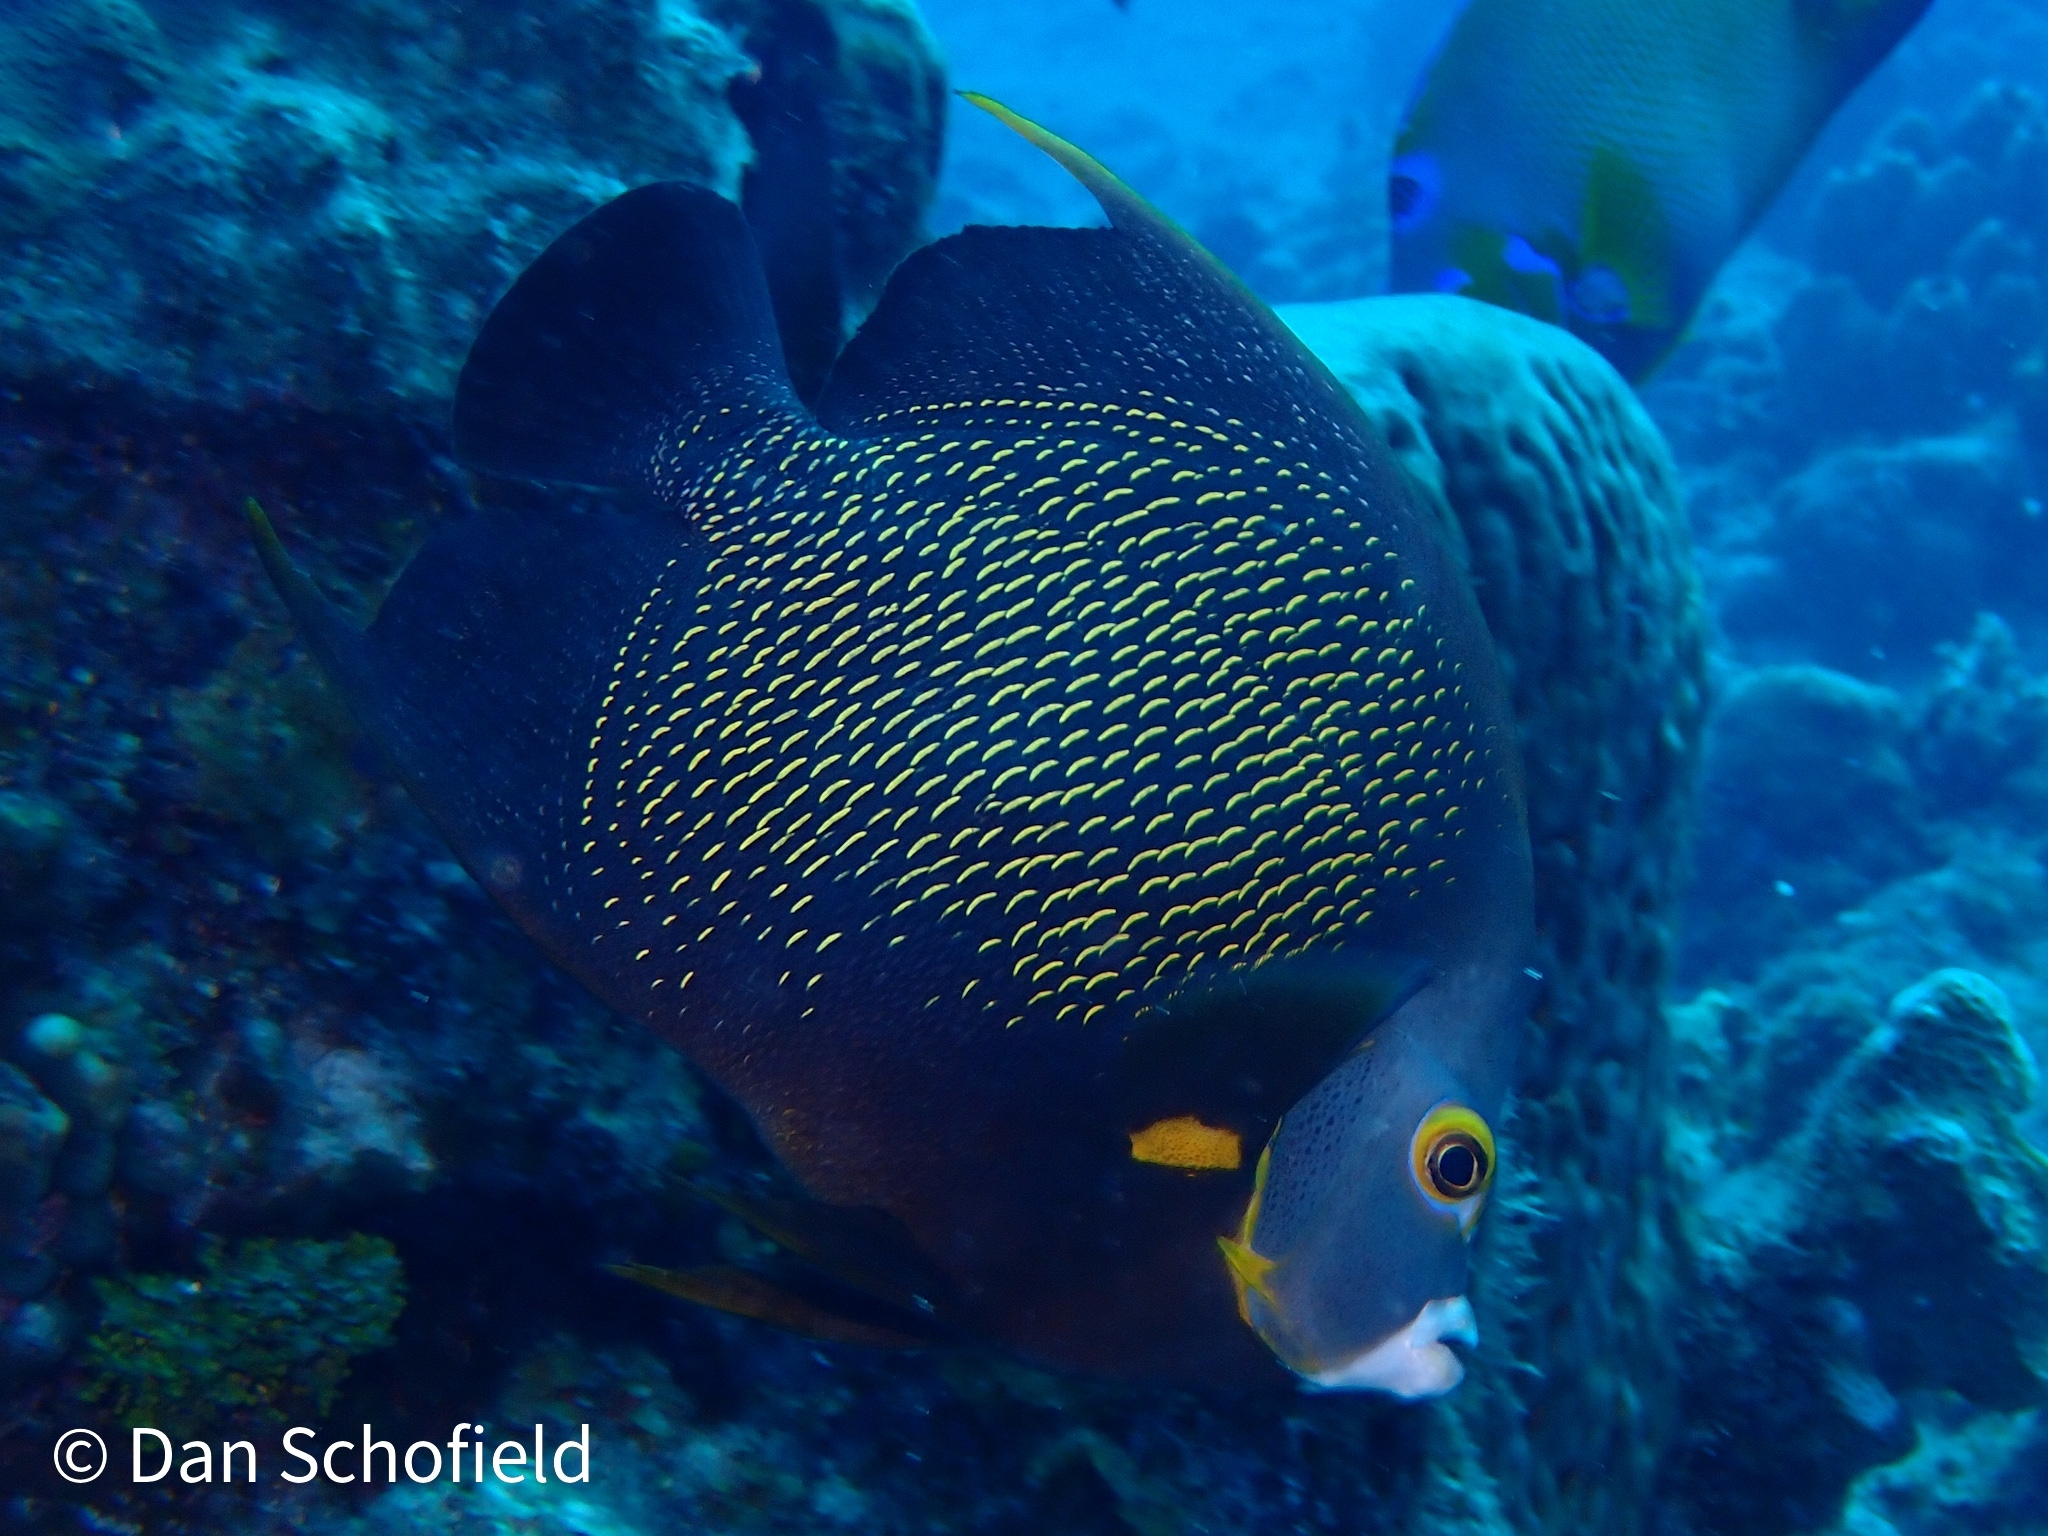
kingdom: Animalia
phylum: Chordata
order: Perciformes
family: Pomacanthidae
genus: Pomacanthus
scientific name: Pomacanthus paru
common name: French angelfish
